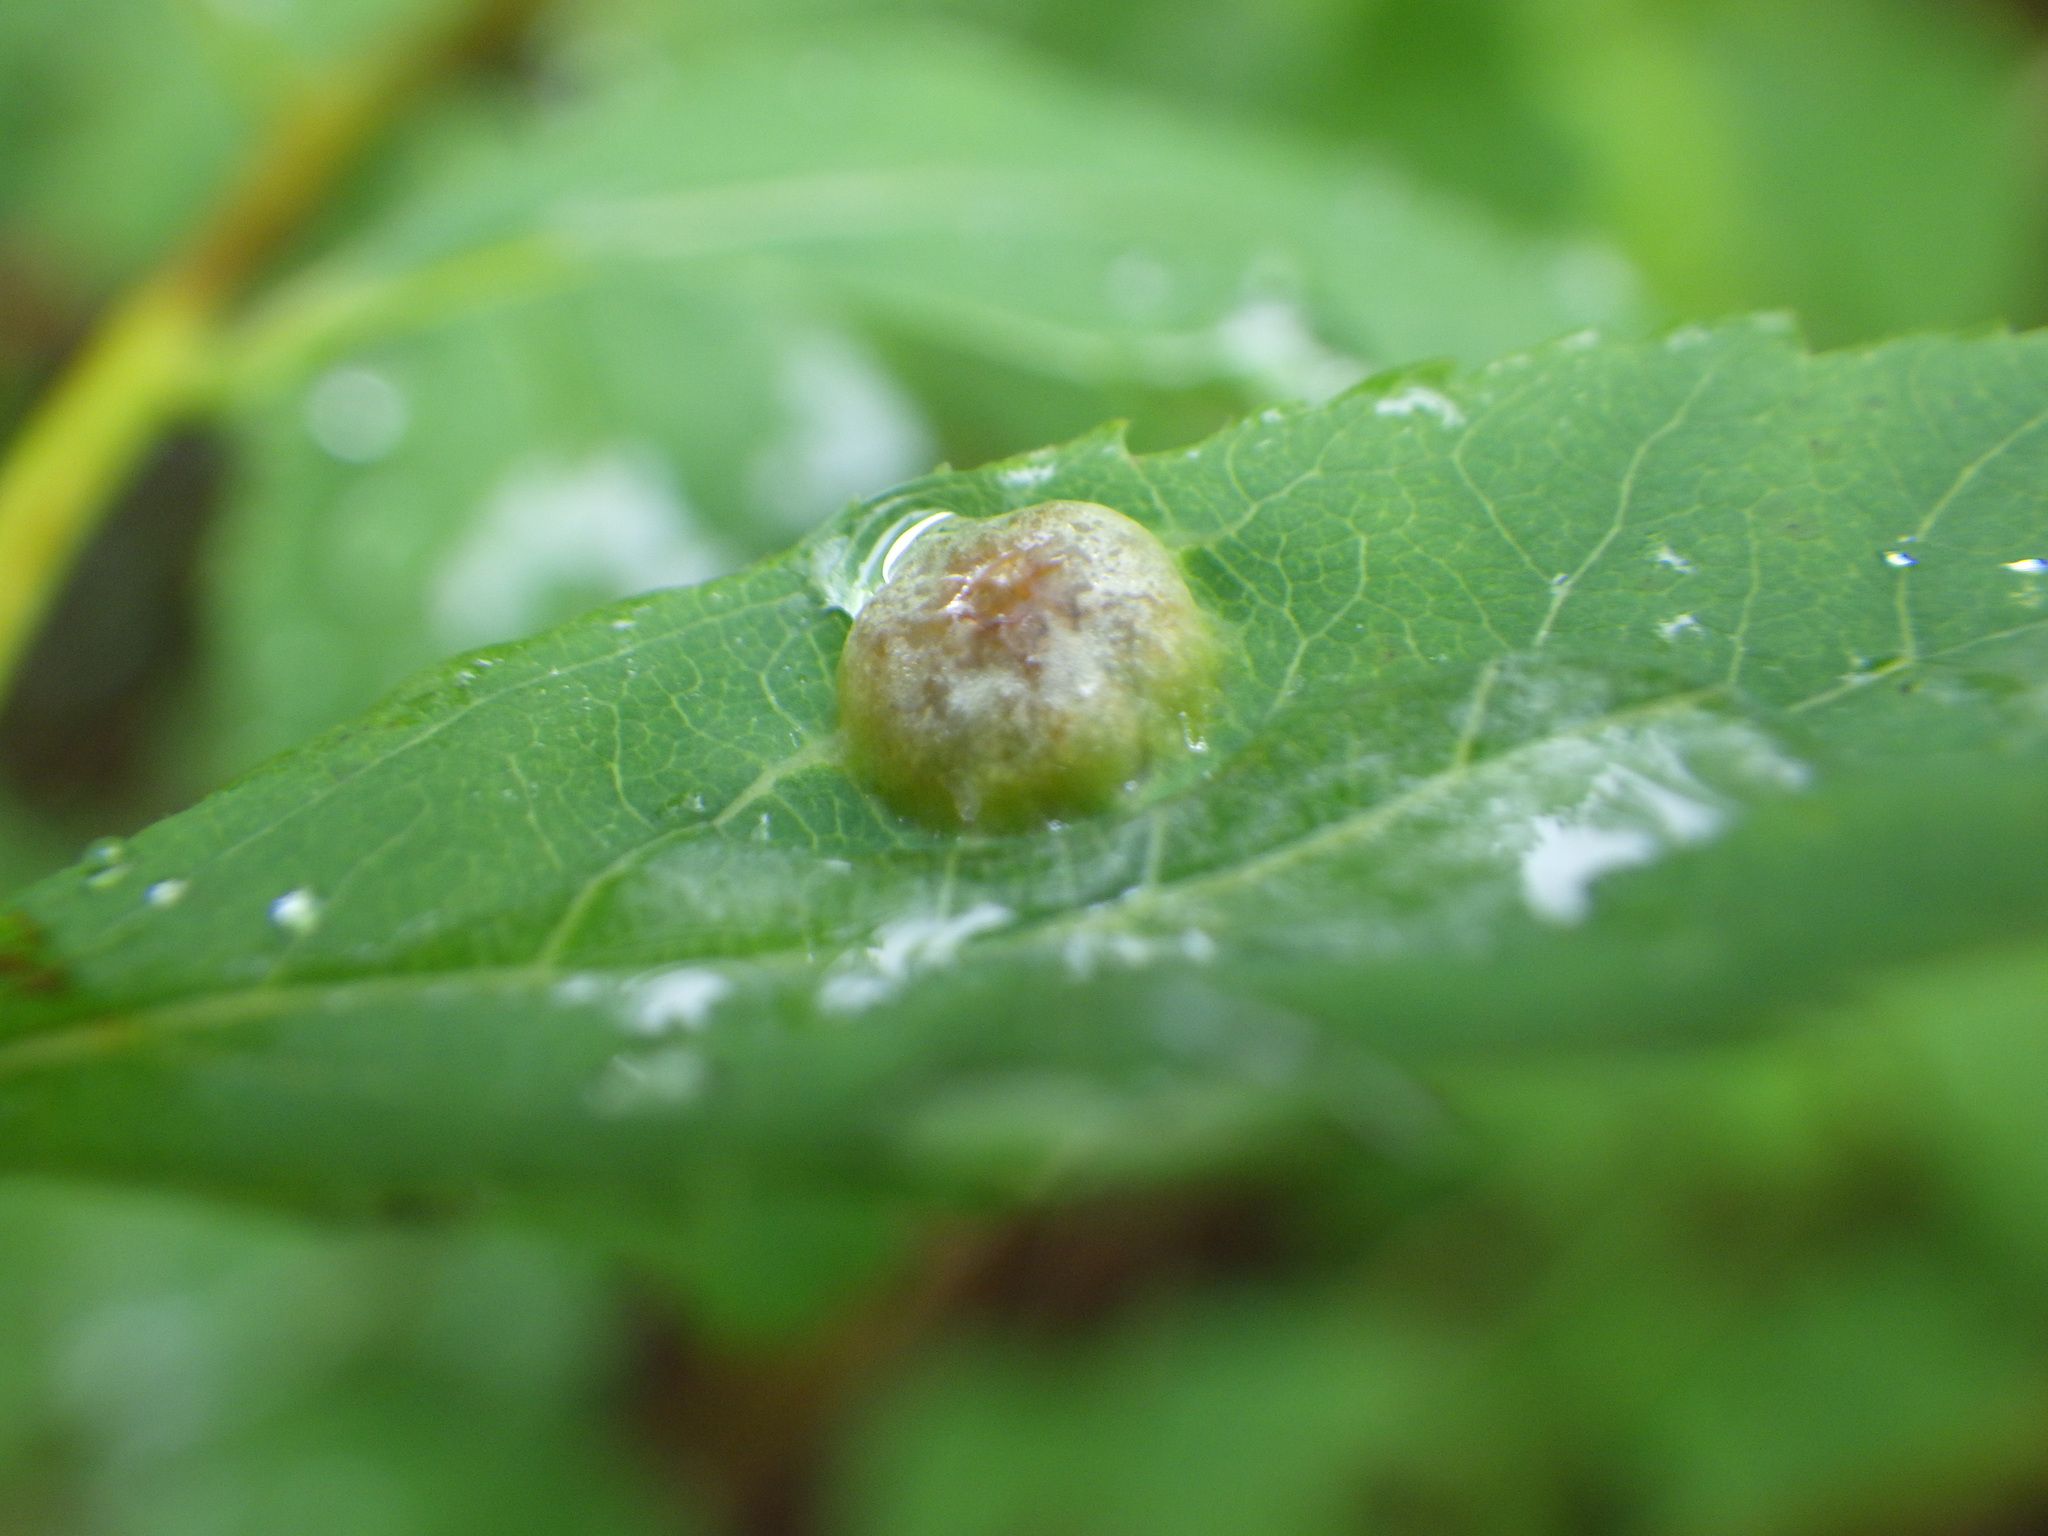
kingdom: Animalia
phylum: Arthropoda
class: Insecta
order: Diptera
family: Cecidomyiidae
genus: Lasioptera
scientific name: Lasioptera spiraeafolia
